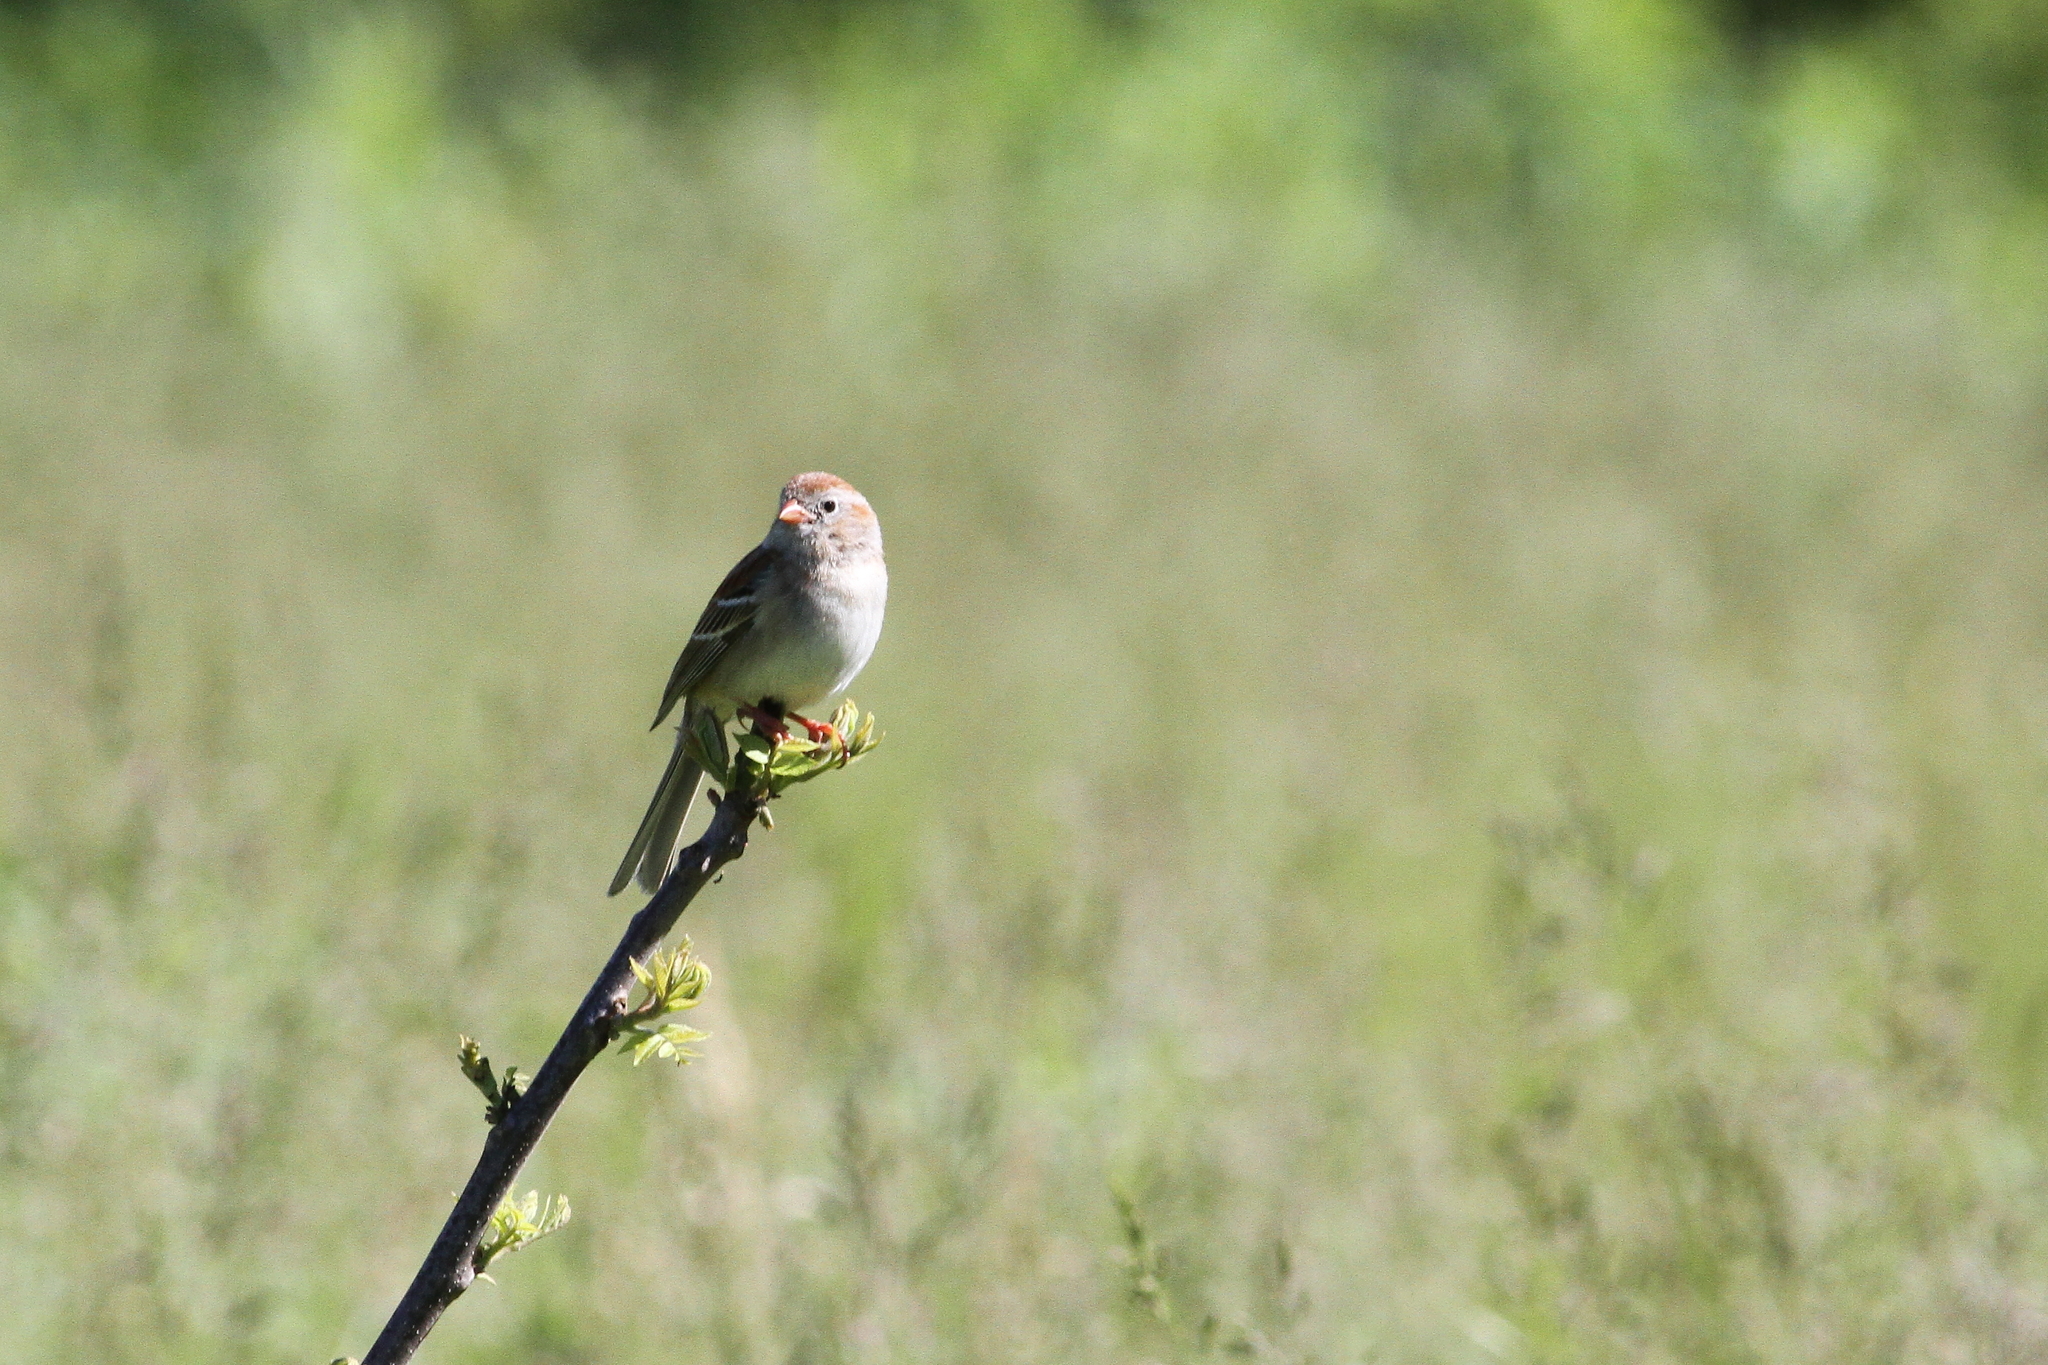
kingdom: Animalia
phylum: Chordata
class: Aves
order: Passeriformes
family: Passerellidae
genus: Spizella
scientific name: Spizella pusilla
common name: Field sparrow
